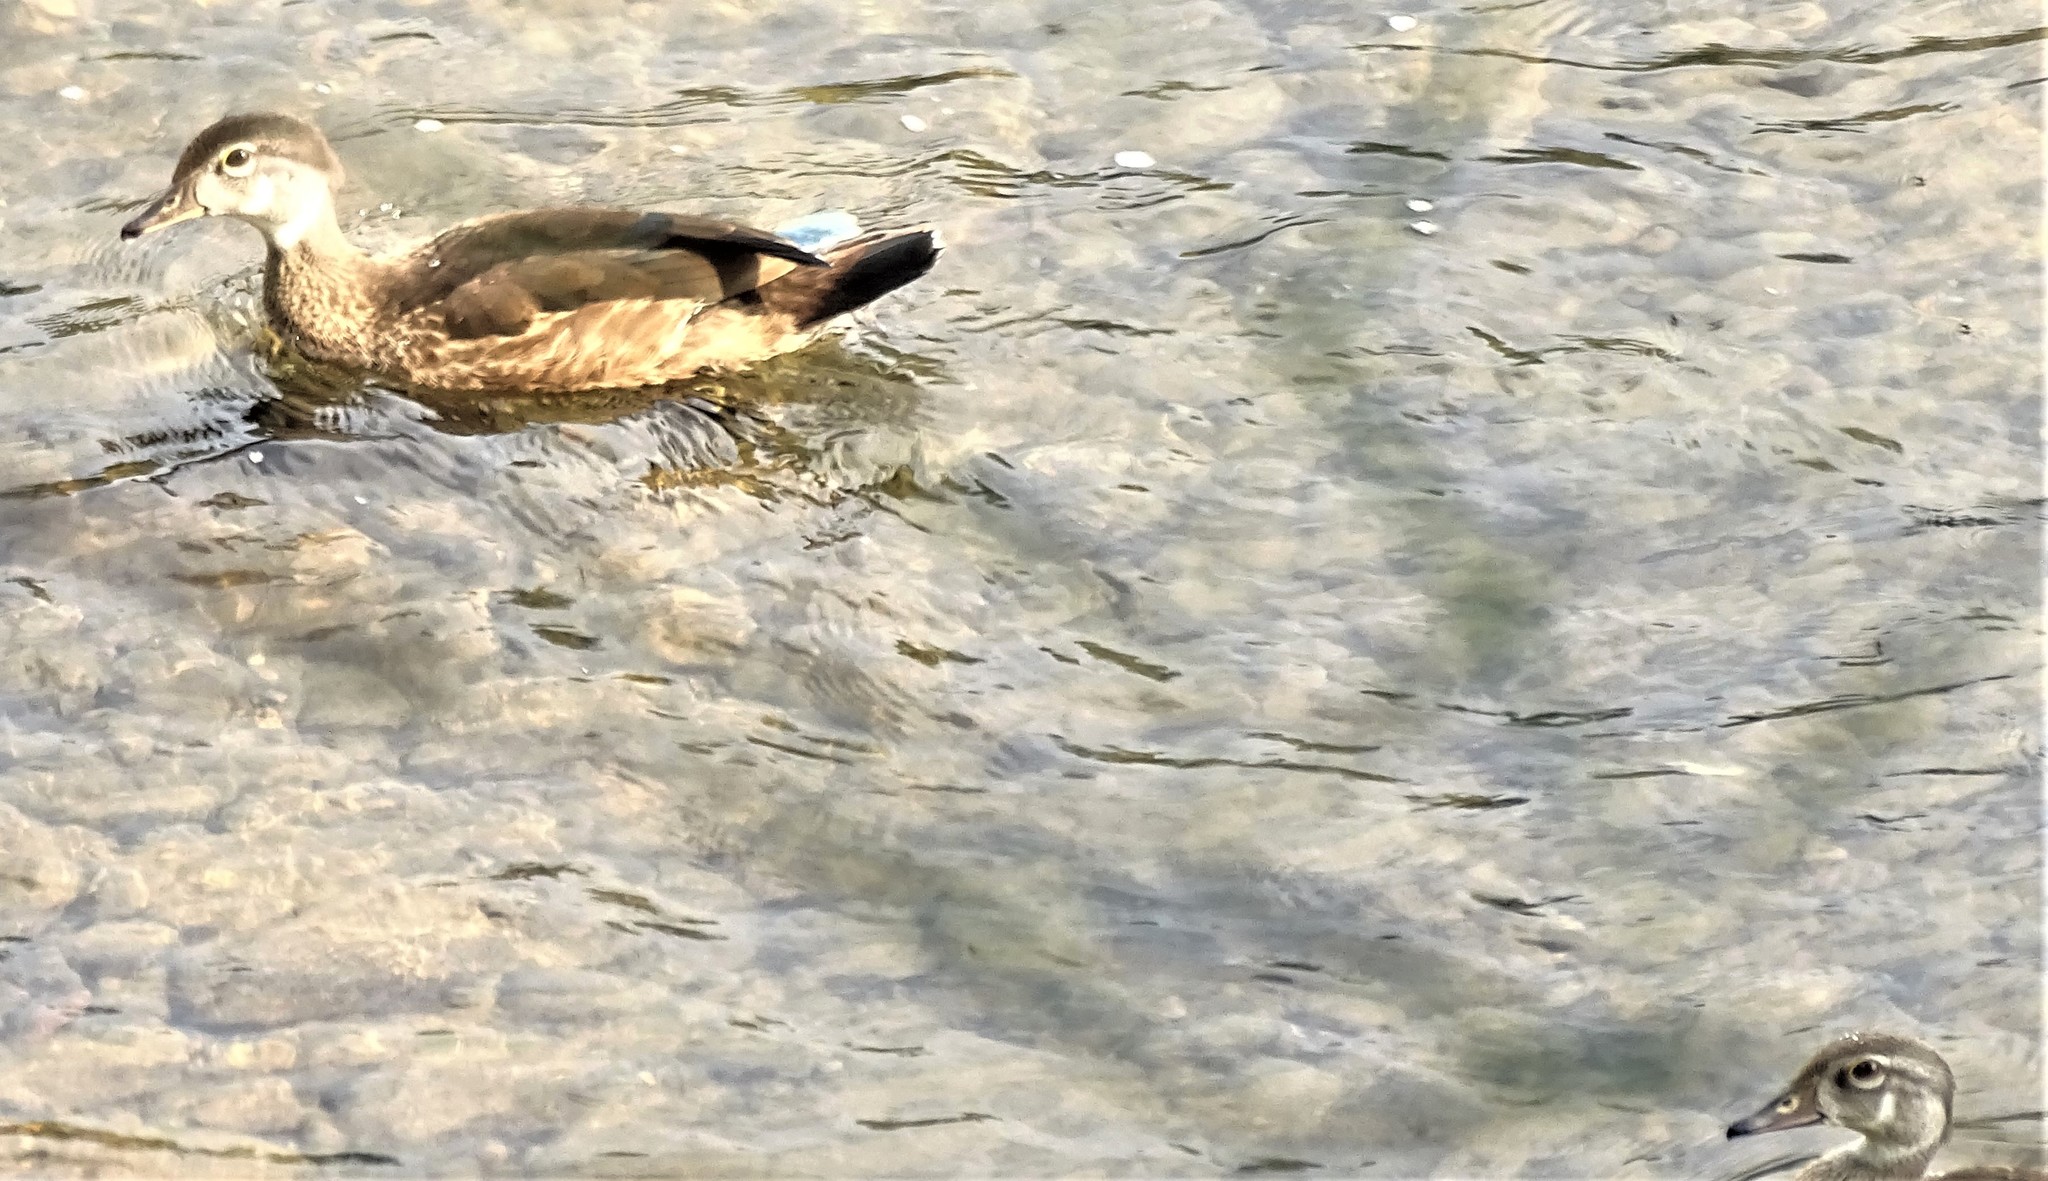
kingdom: Animalia
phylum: Chordata
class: Aves
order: Anseriformes
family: Anatidae
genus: Aix
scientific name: Aix sponsa
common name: Wood duck
